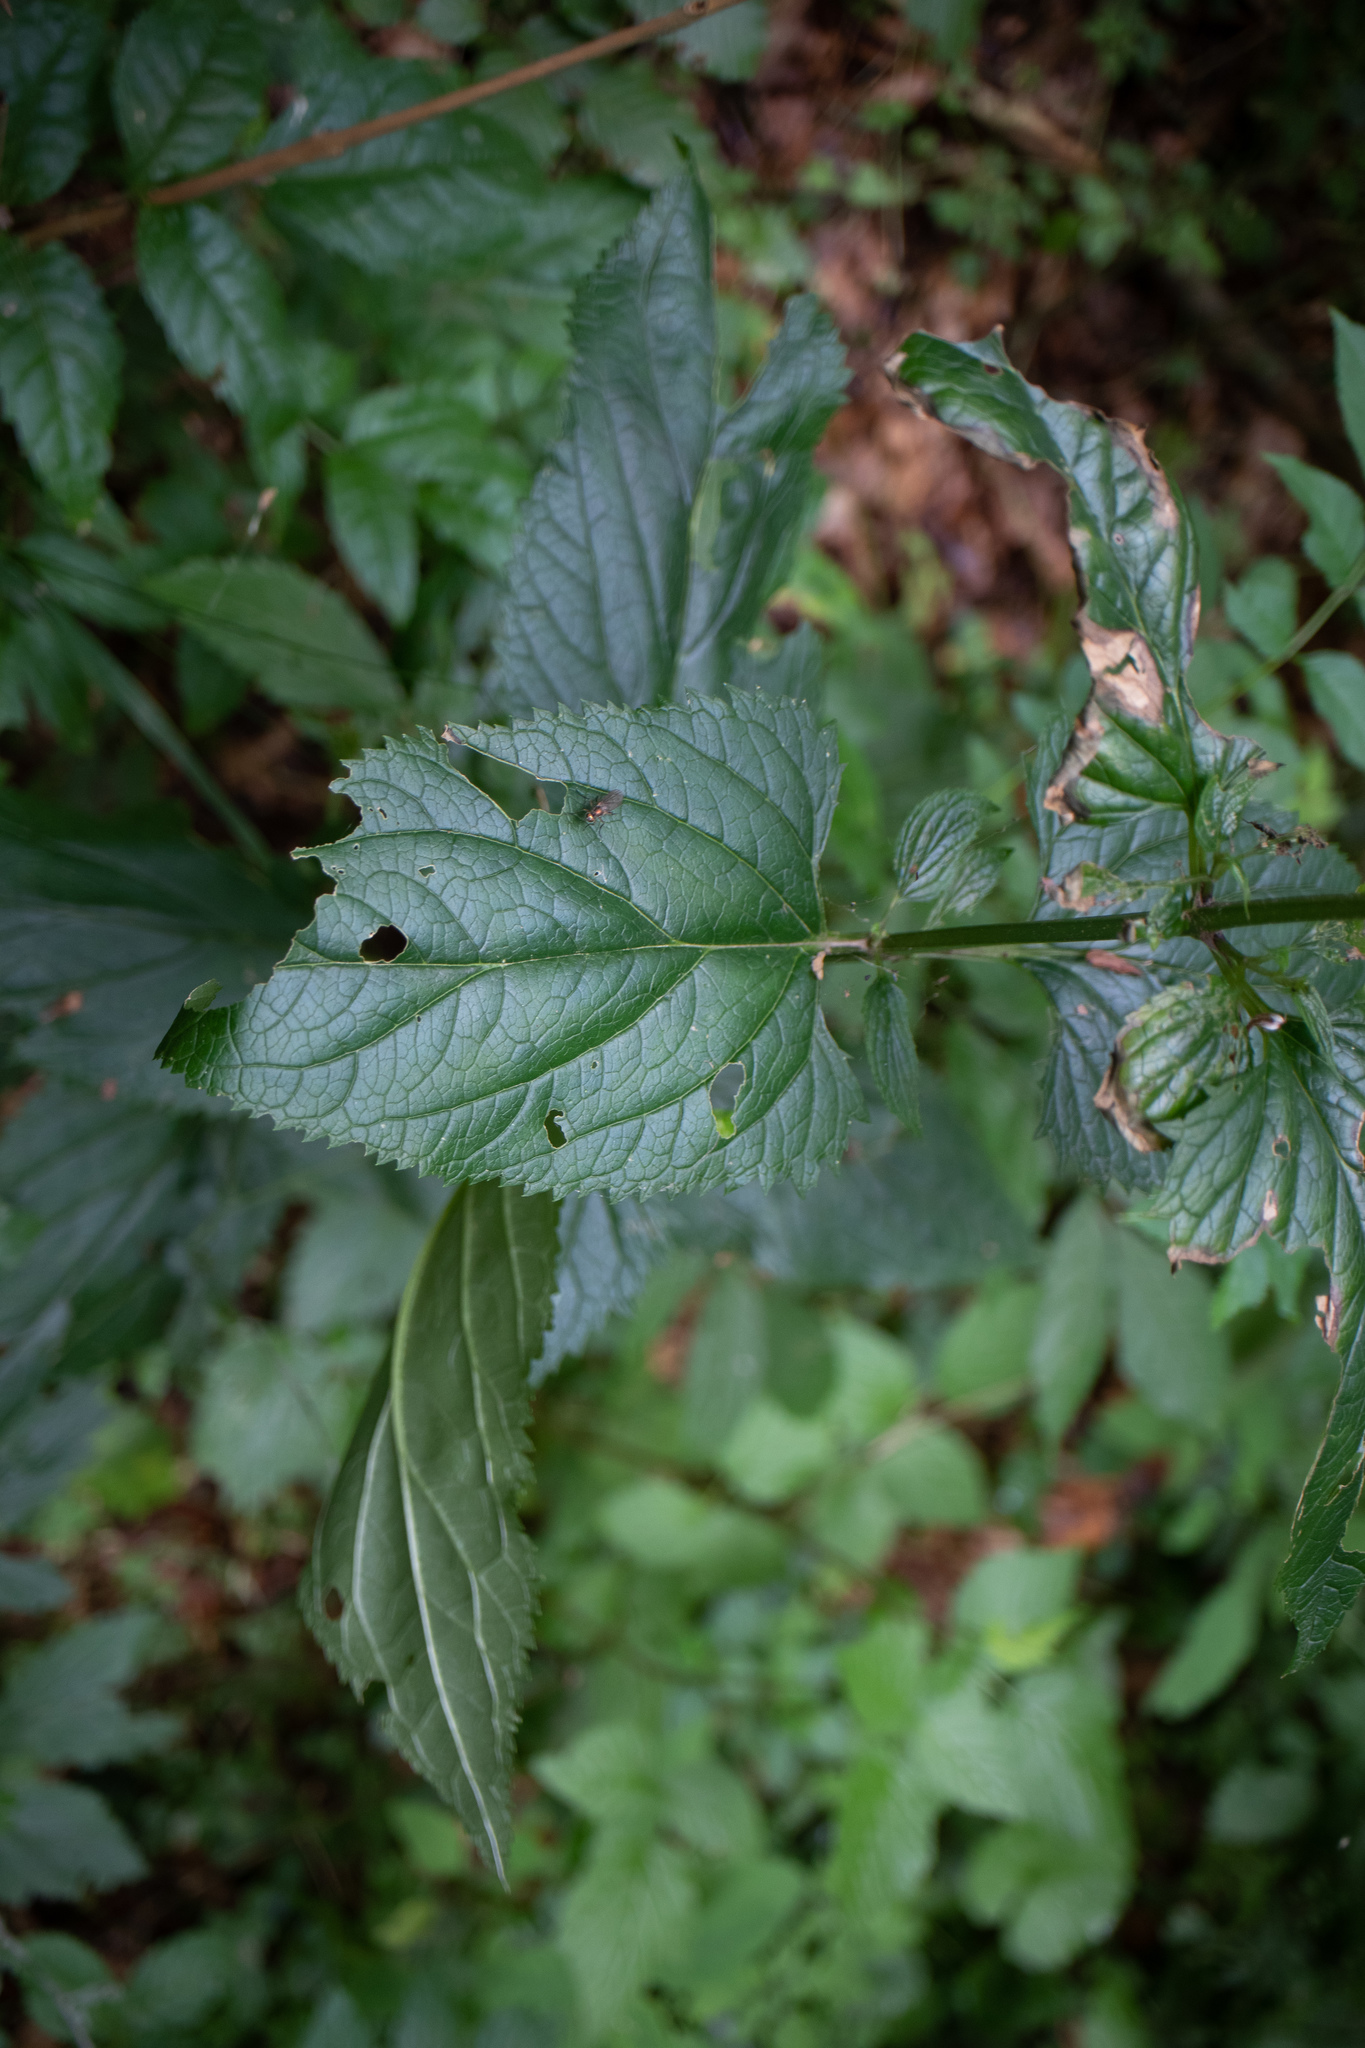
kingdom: Plantae
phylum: Tracheophyta
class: Magnoliopsida
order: Lamiales
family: Scrophulariaceae
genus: Scrophularia
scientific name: Scrophularia nodosa
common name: Common figwort
